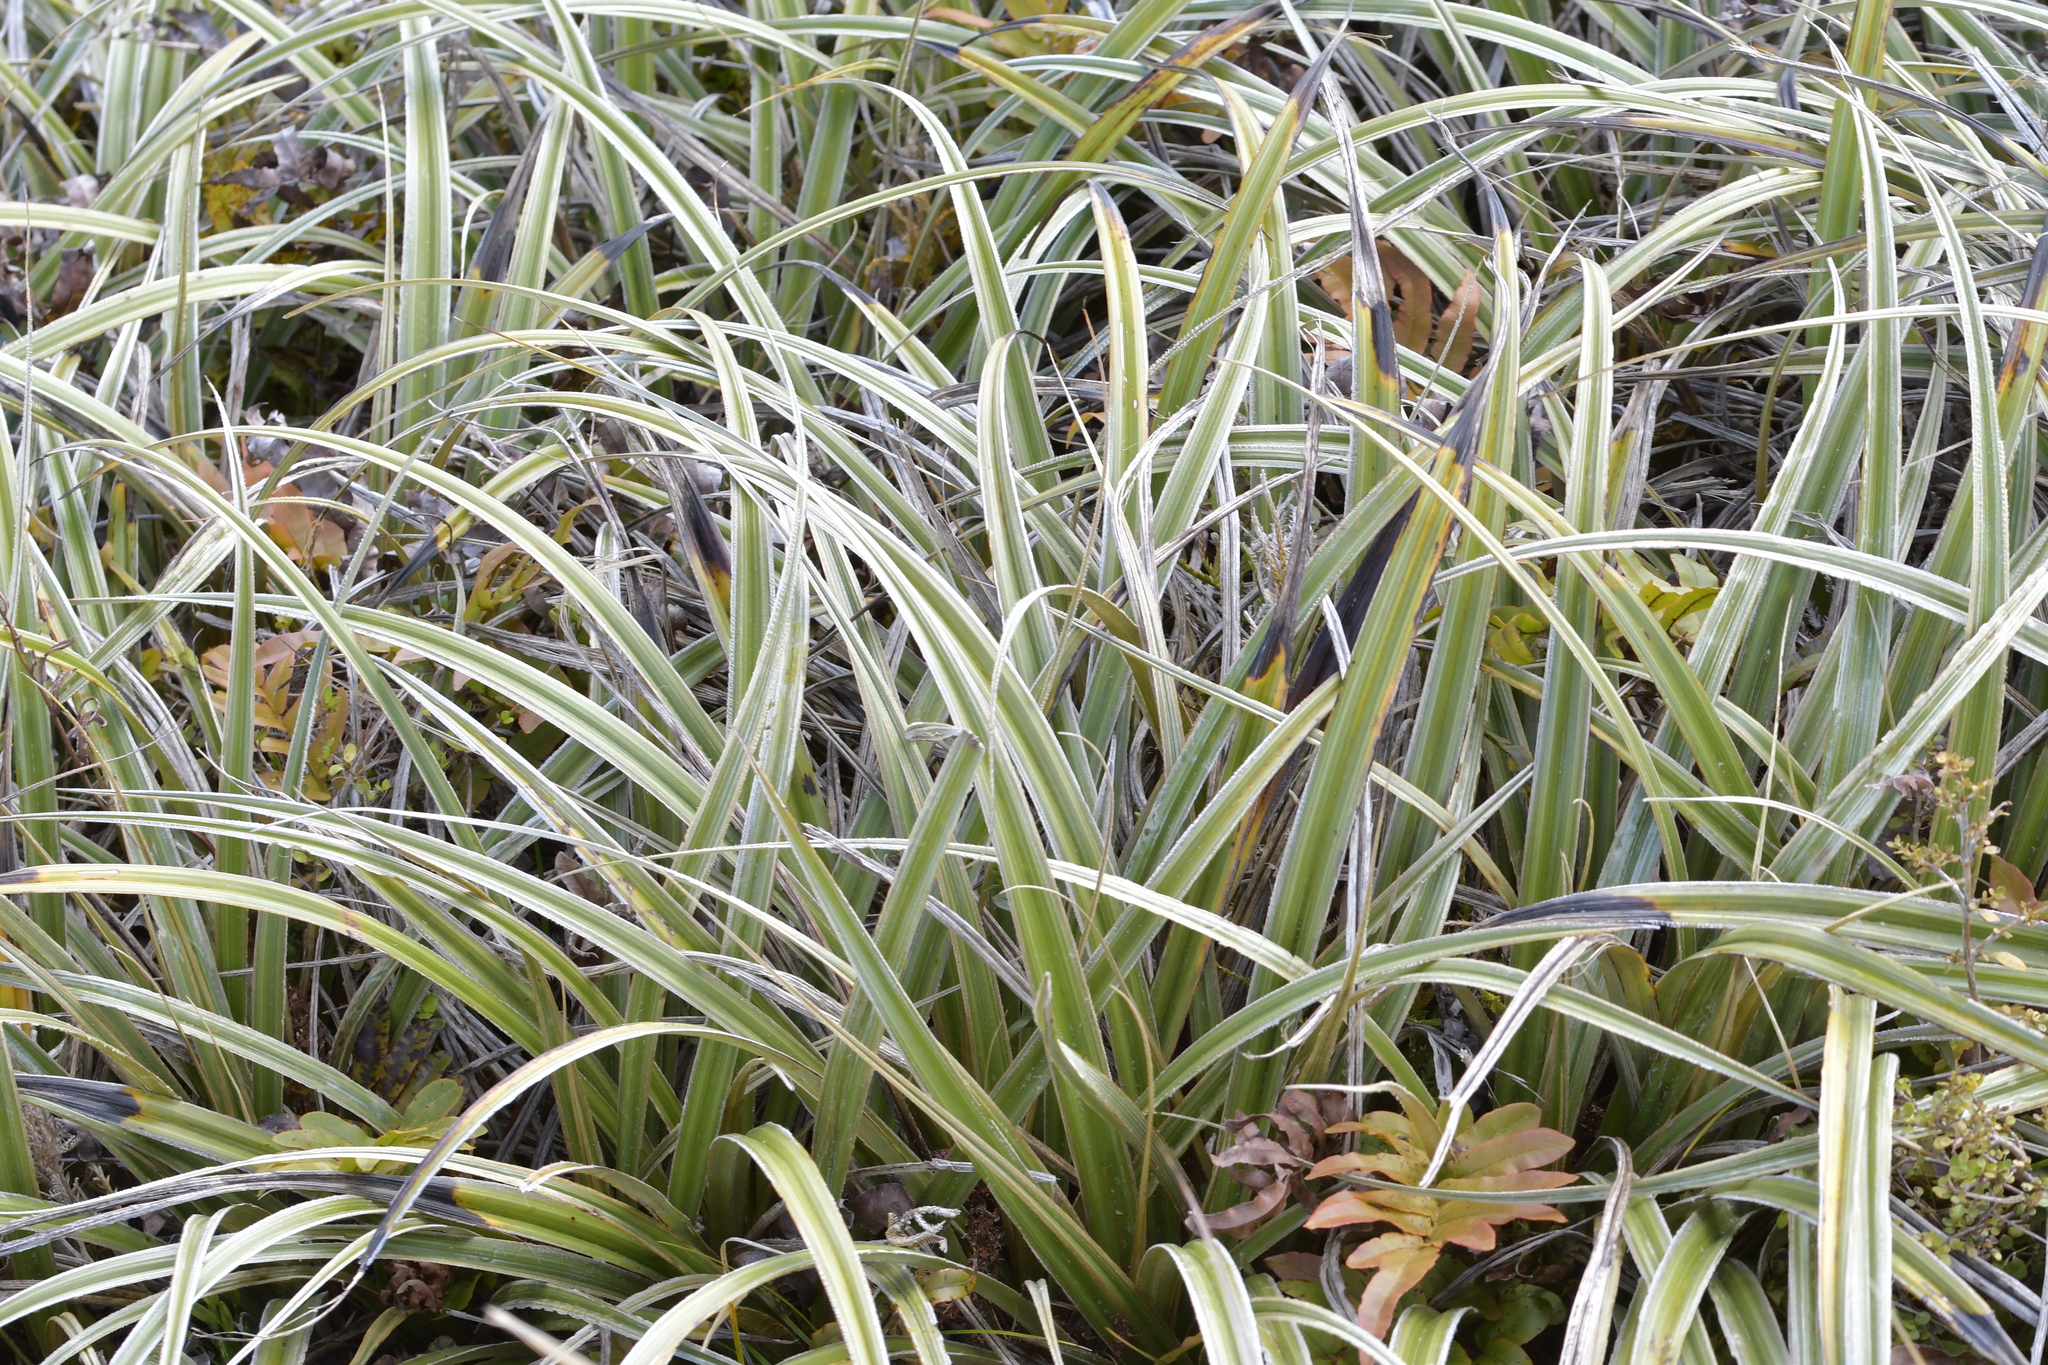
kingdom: Plantae
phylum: Tracheophyta
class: Liliopsida
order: Asparagales
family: Asteliaceae
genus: Astelia
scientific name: Astelia nervosa
